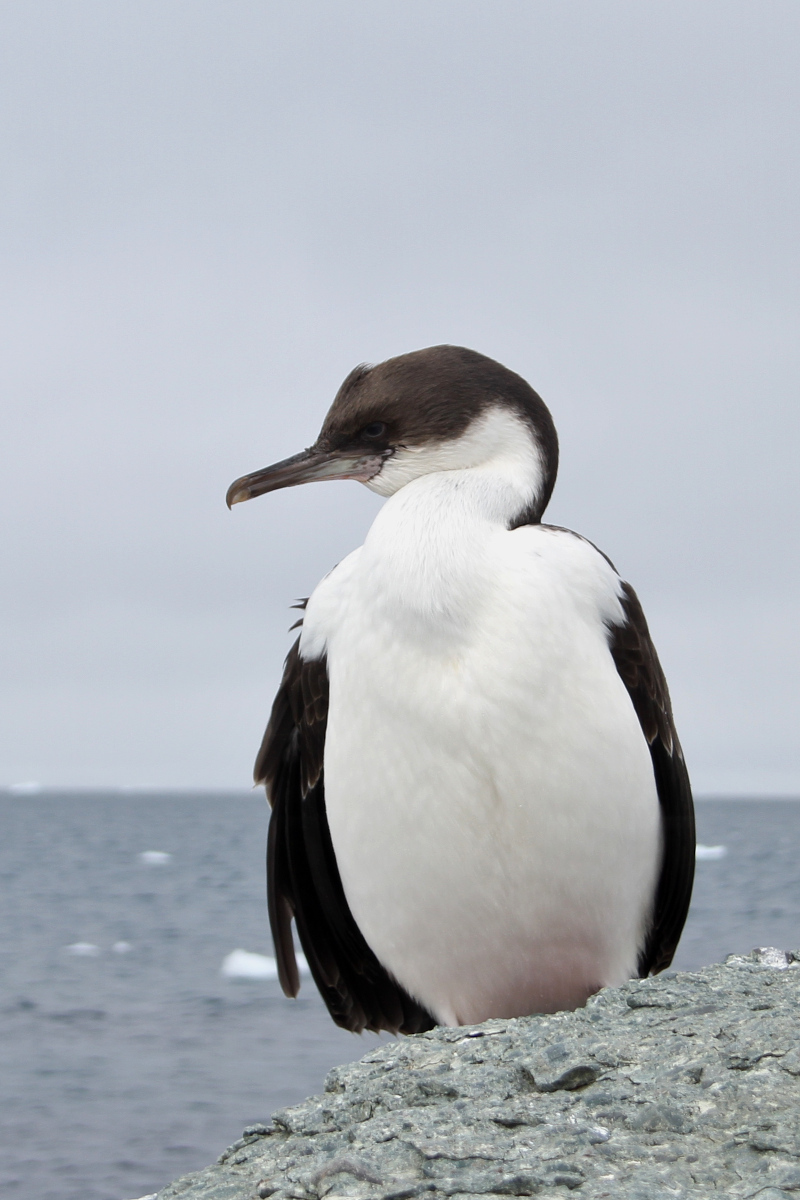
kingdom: Animalia
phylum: Chordata
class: Aves
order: Suliformes
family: Phalacrocoracidae
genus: Leucocarbo
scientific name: Leucocarbo atriceps
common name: Imperial shag
